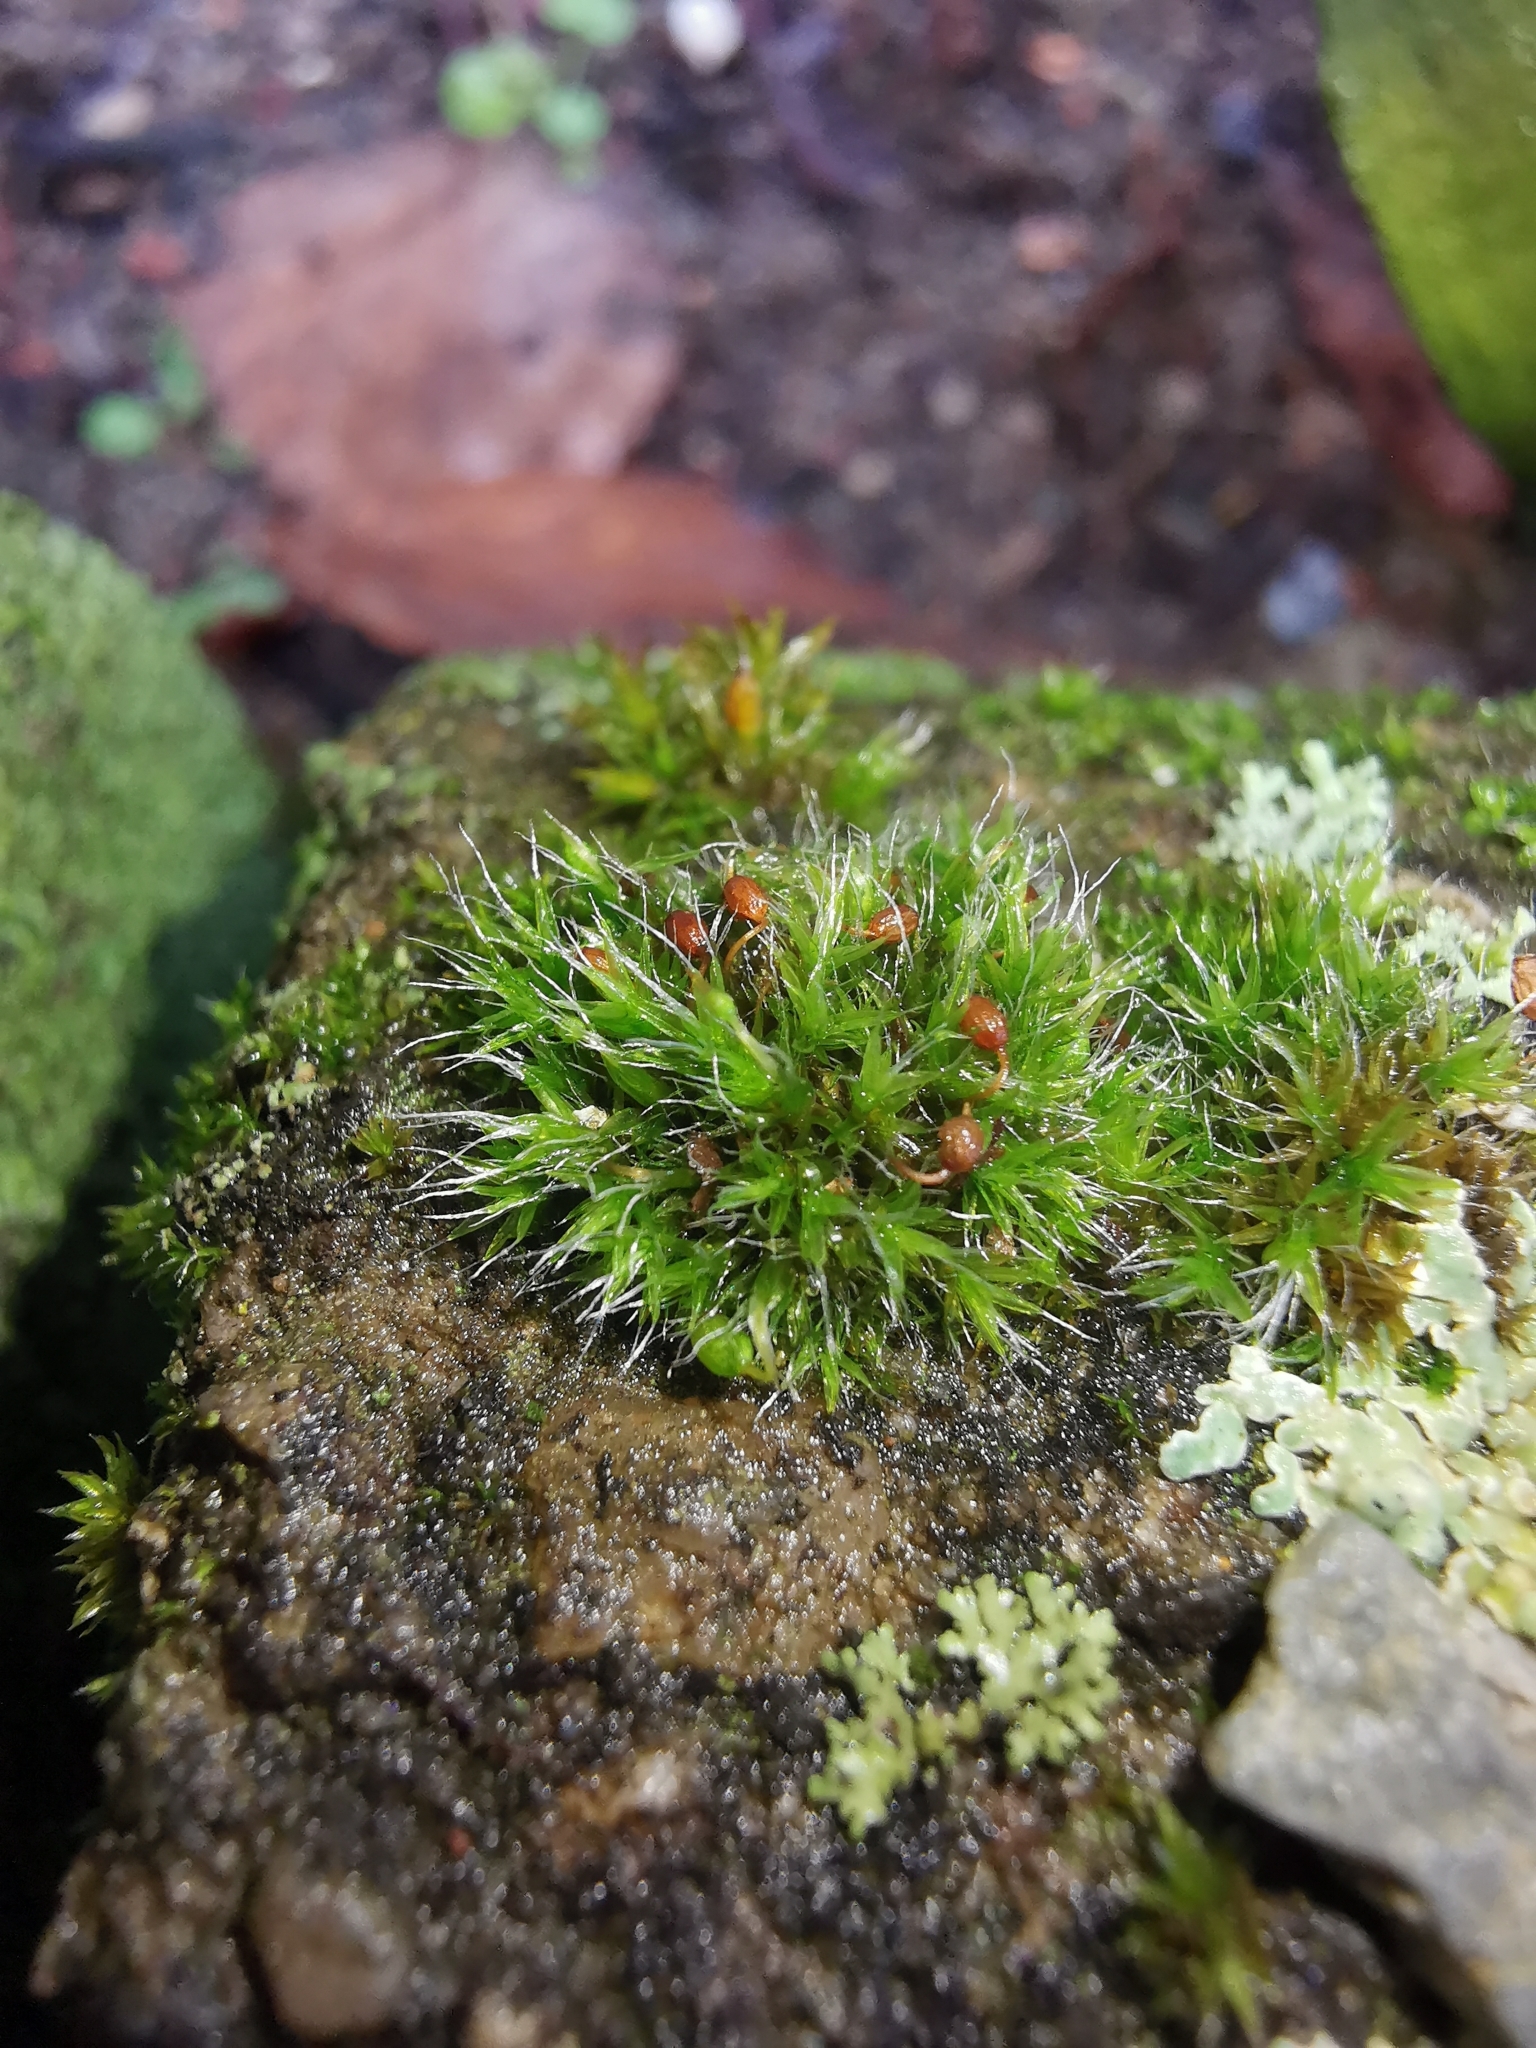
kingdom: Plantae
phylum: Bryophyta
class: Bryopsida
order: Grimmiales
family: Grimmiaceae
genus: Grimmia
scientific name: Grimmia pulvinata
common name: Grey-cushioned grimmia
